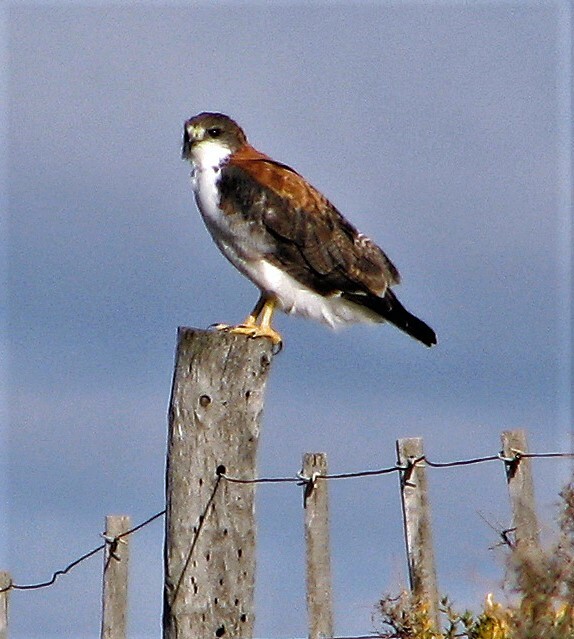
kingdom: Animalia
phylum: Chordata
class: Aves
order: Accipitriformes
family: Accipitridae
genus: Buteo
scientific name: Buteo polyosoma
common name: Variable hawk
